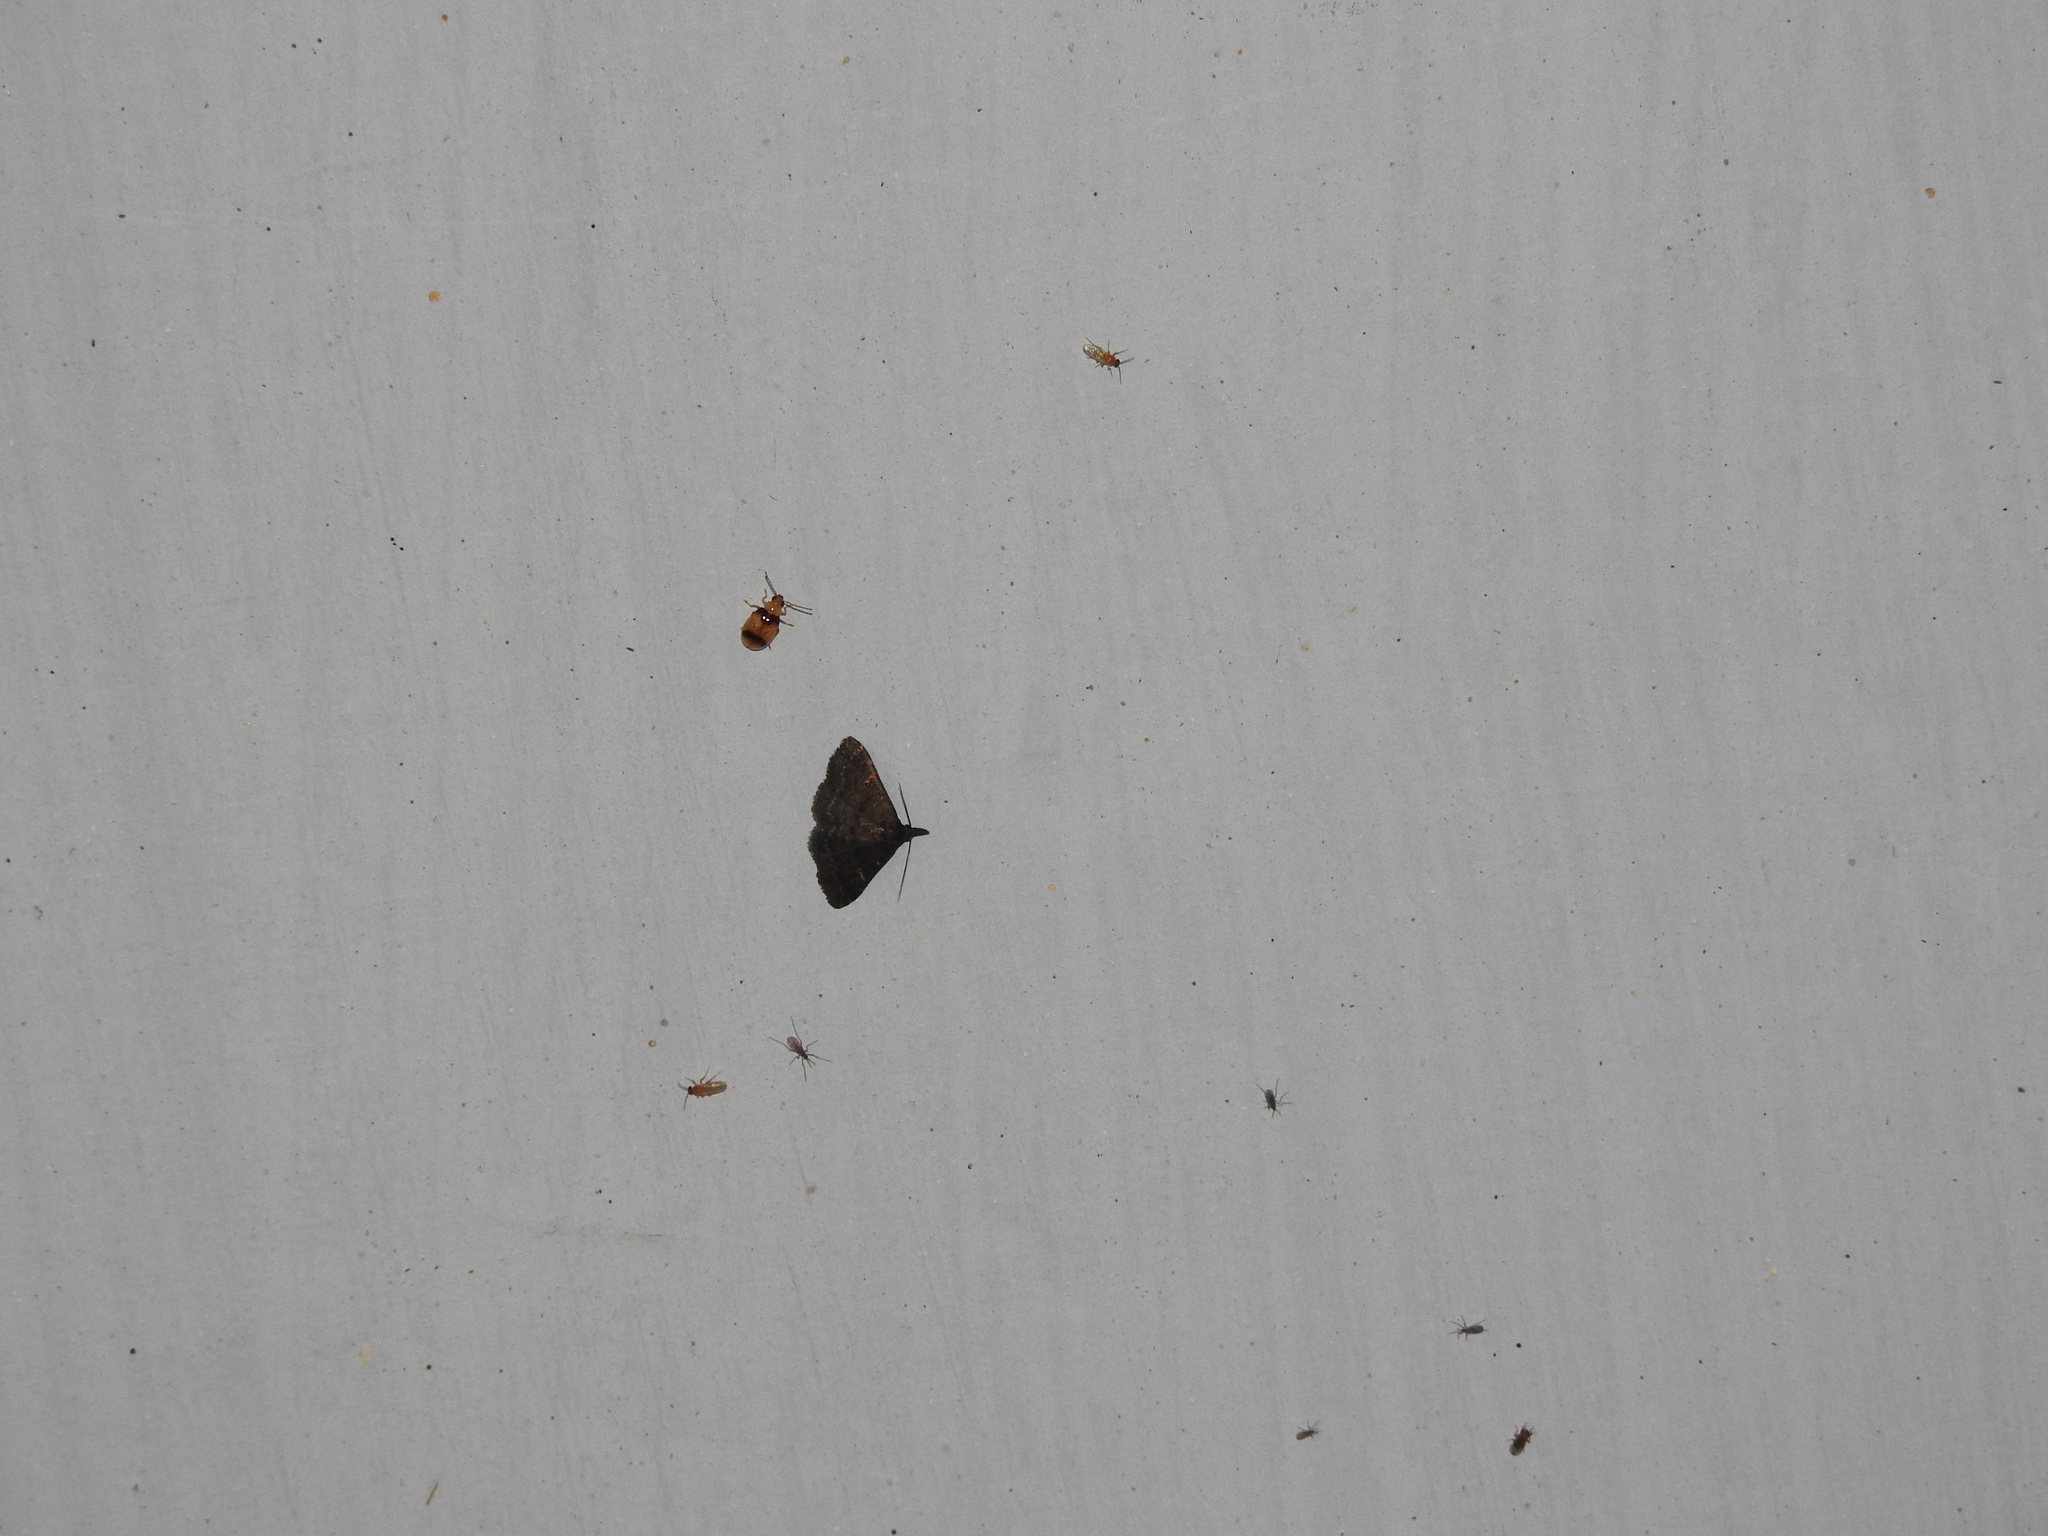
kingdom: Animalia
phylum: Arthropoda
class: Insecta
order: Coleoptera
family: Chrysomelidae
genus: Monolepta
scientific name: Monolepta
